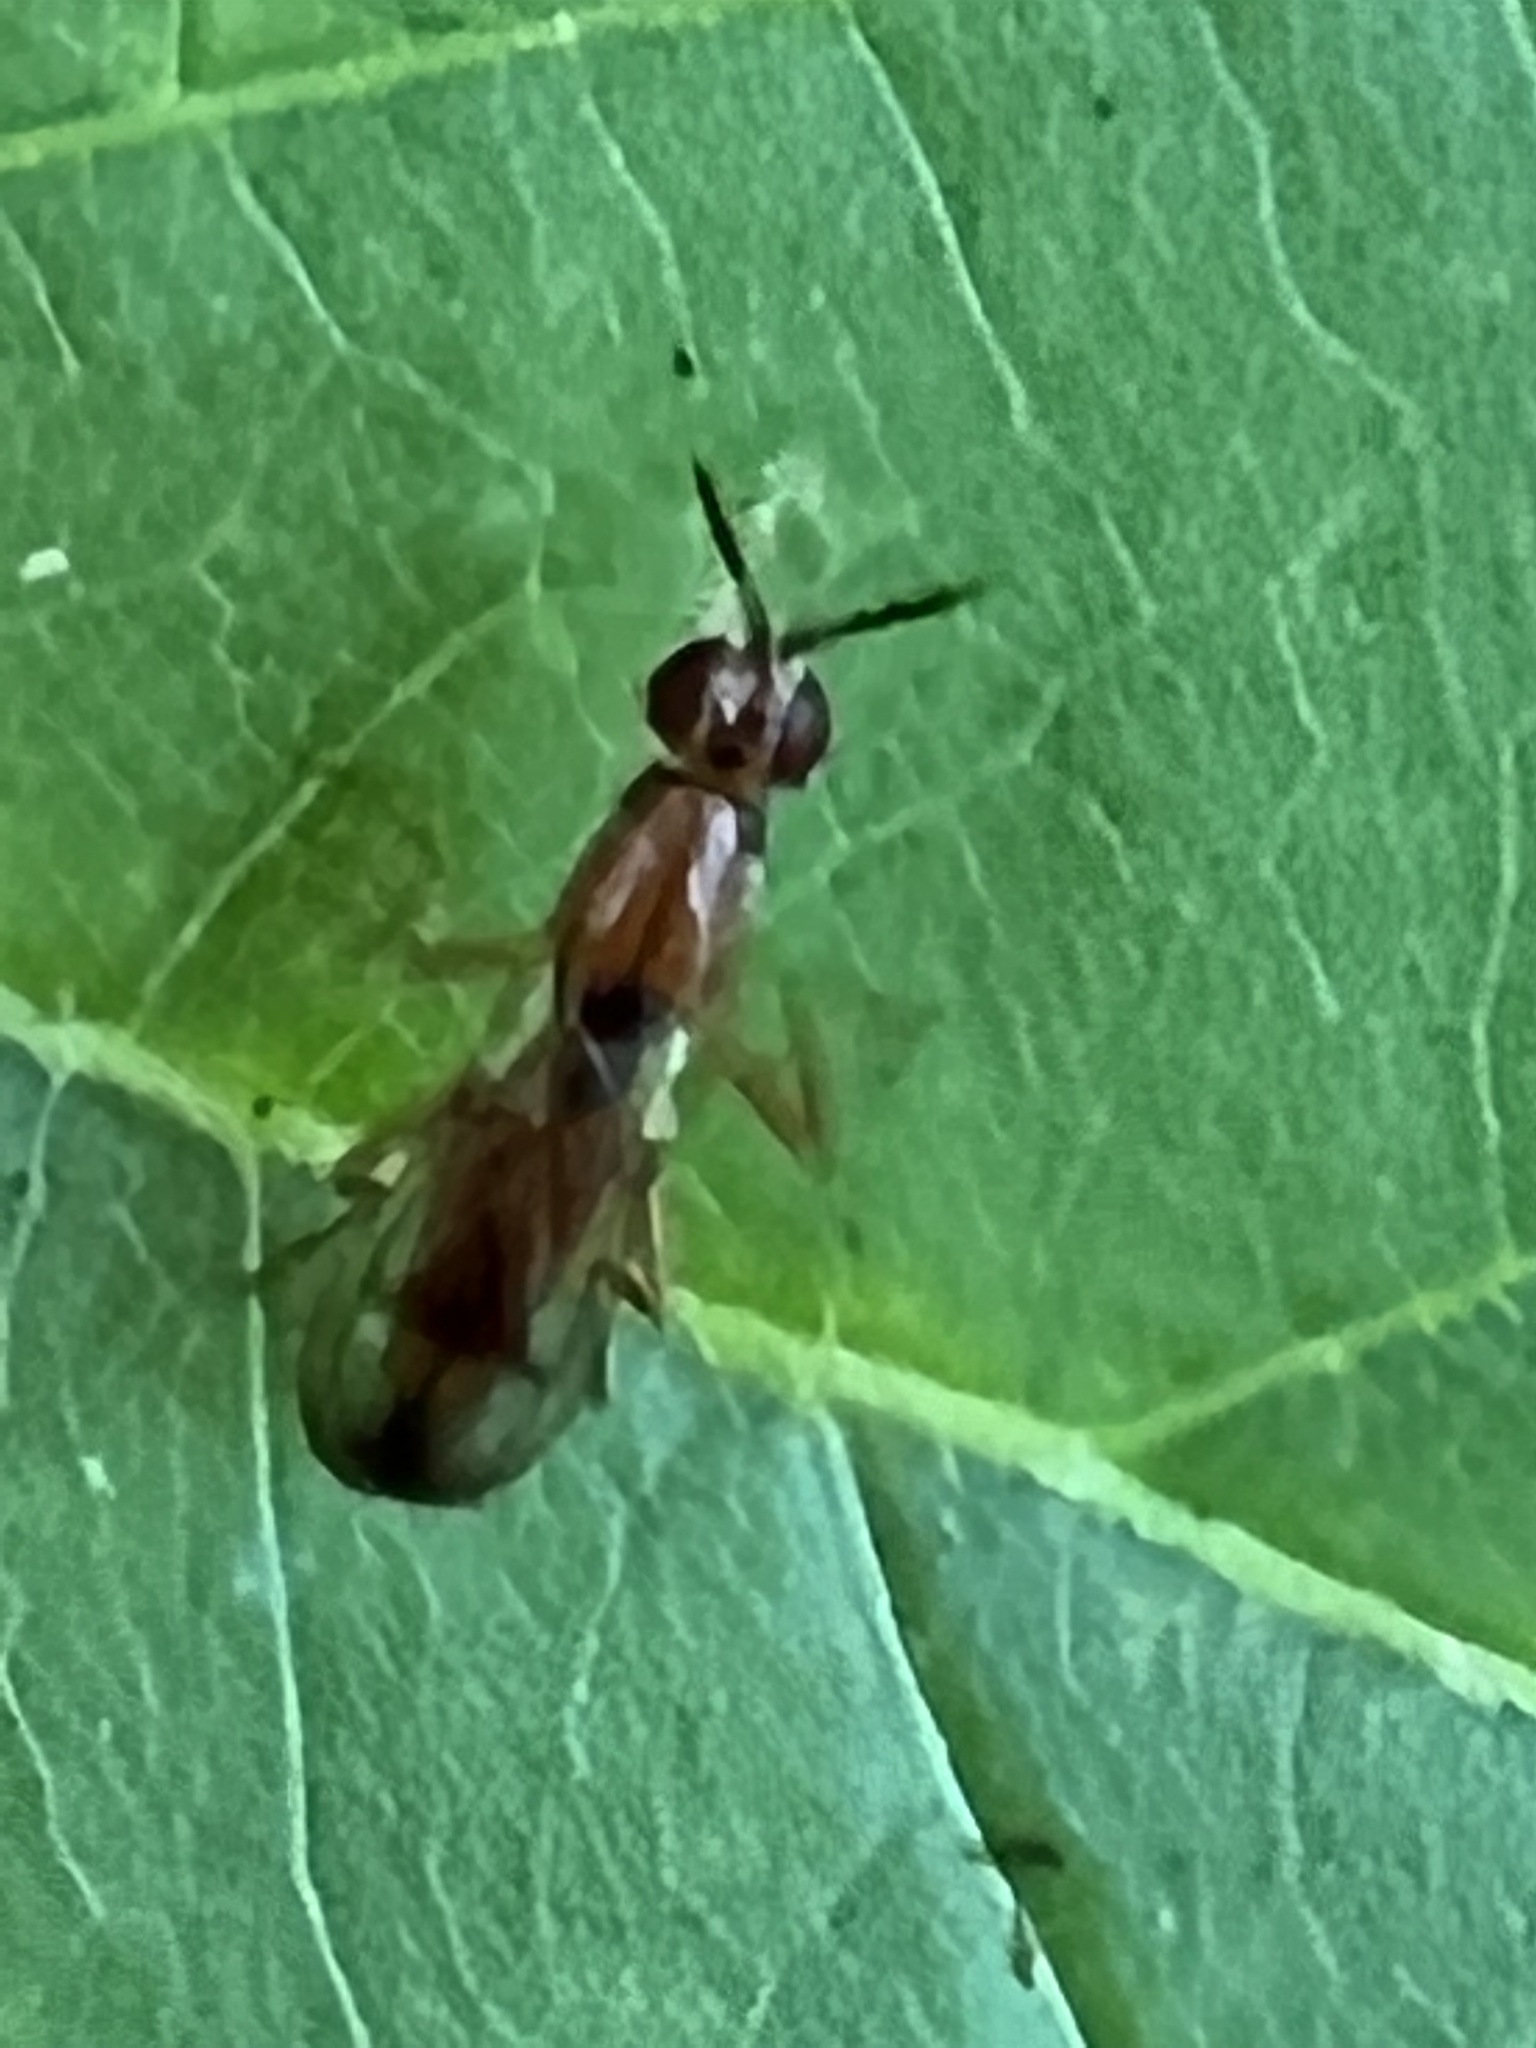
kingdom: Animalia
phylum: Arthropoda
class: Insecta
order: Diptera
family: Psilidae
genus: Loxocera
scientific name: Loxocera cylindrica
